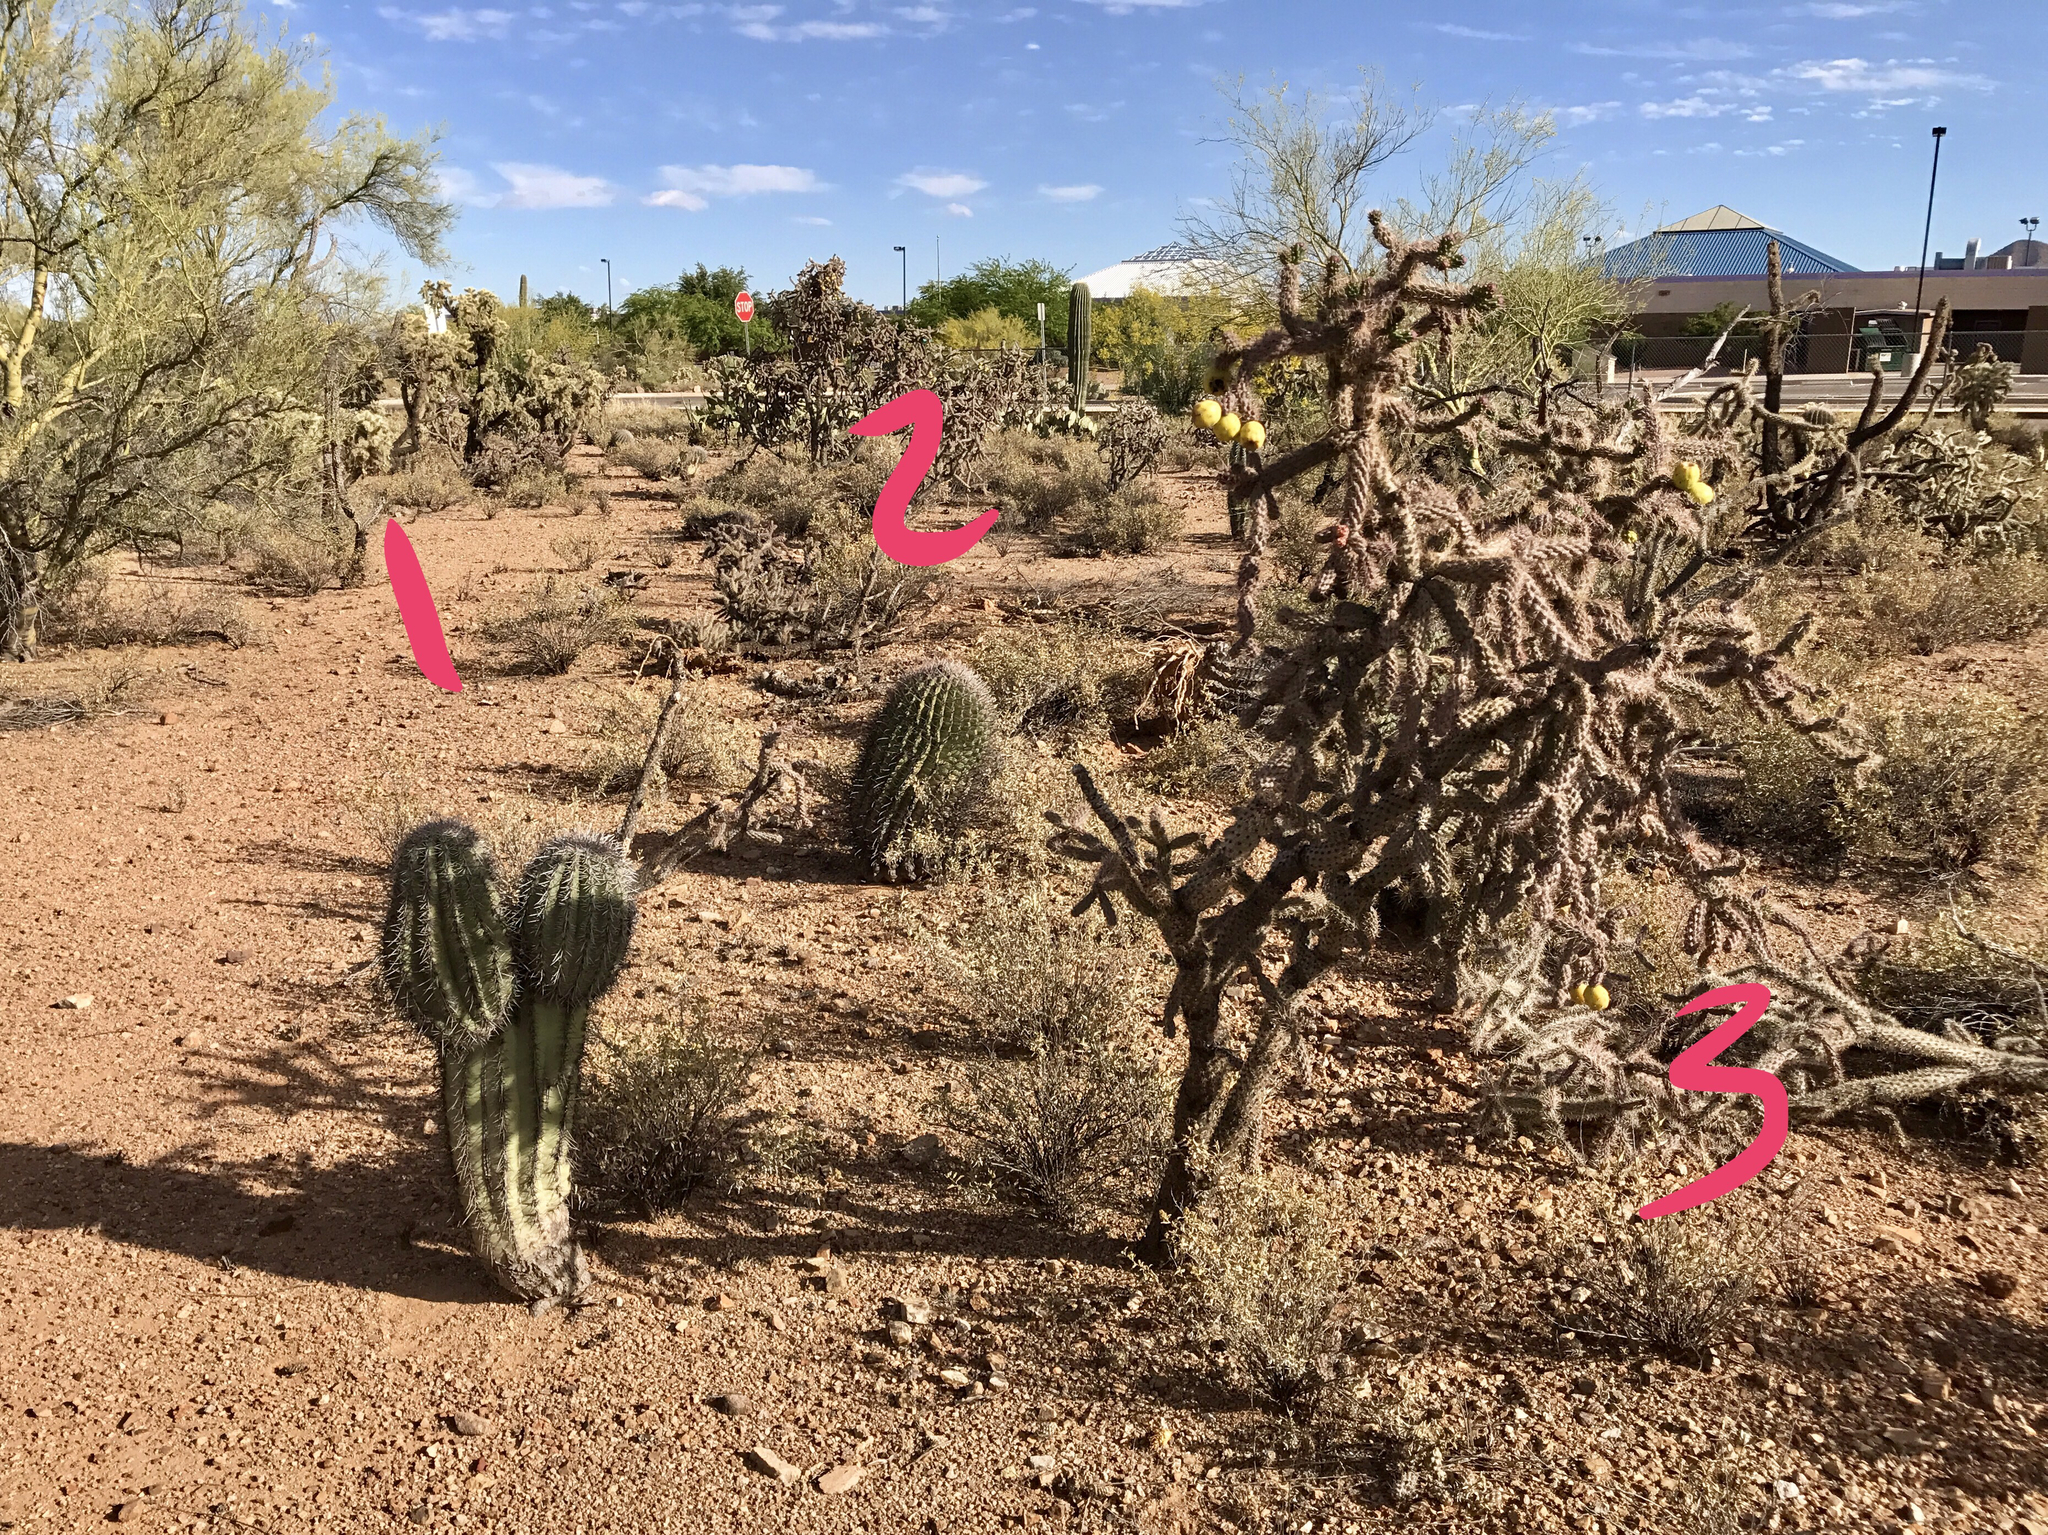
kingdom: Plantae
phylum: Tracheophyta
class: Magnoliopsida
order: Caryophyllales
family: Cactaceae
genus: Carnegiea
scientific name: Carnegiea gigantea
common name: Saguaro
